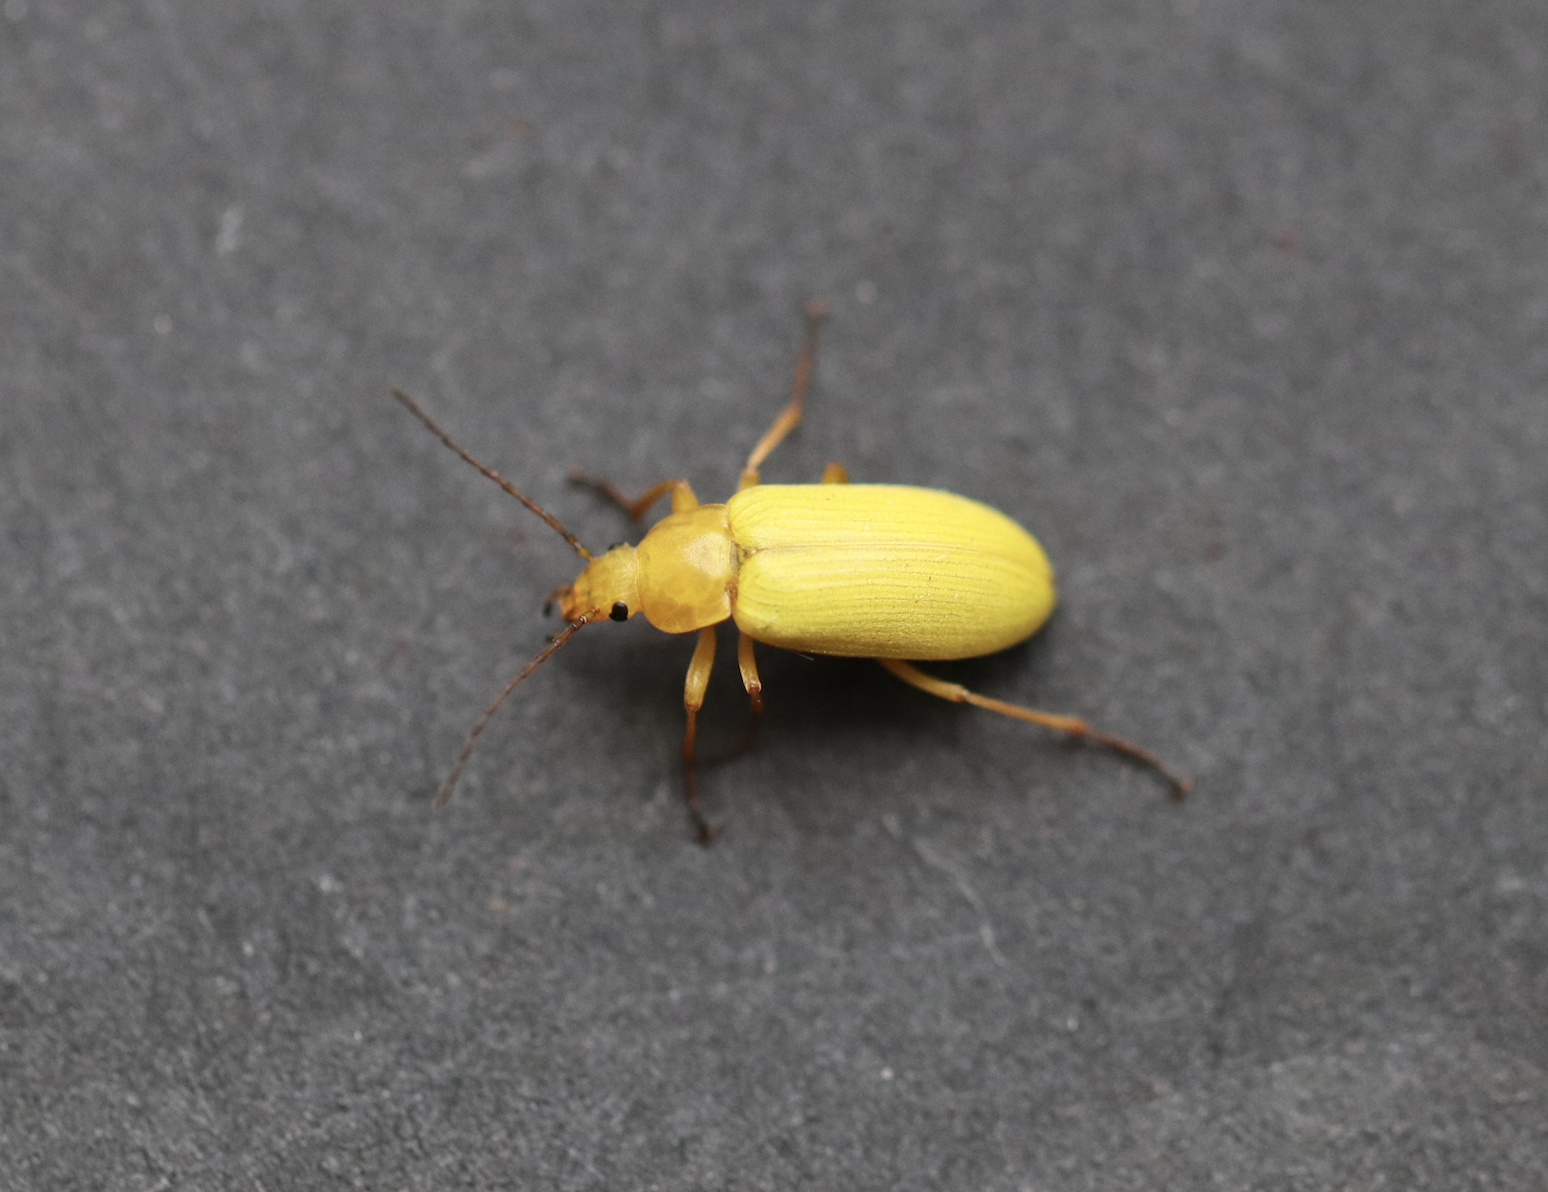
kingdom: Animalia
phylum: Arthropoda
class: Insecta
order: Coleoptera
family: Tenebrionidae
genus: Cteniopus
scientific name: Cteniopus sulphureus
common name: Sulphur beetle
